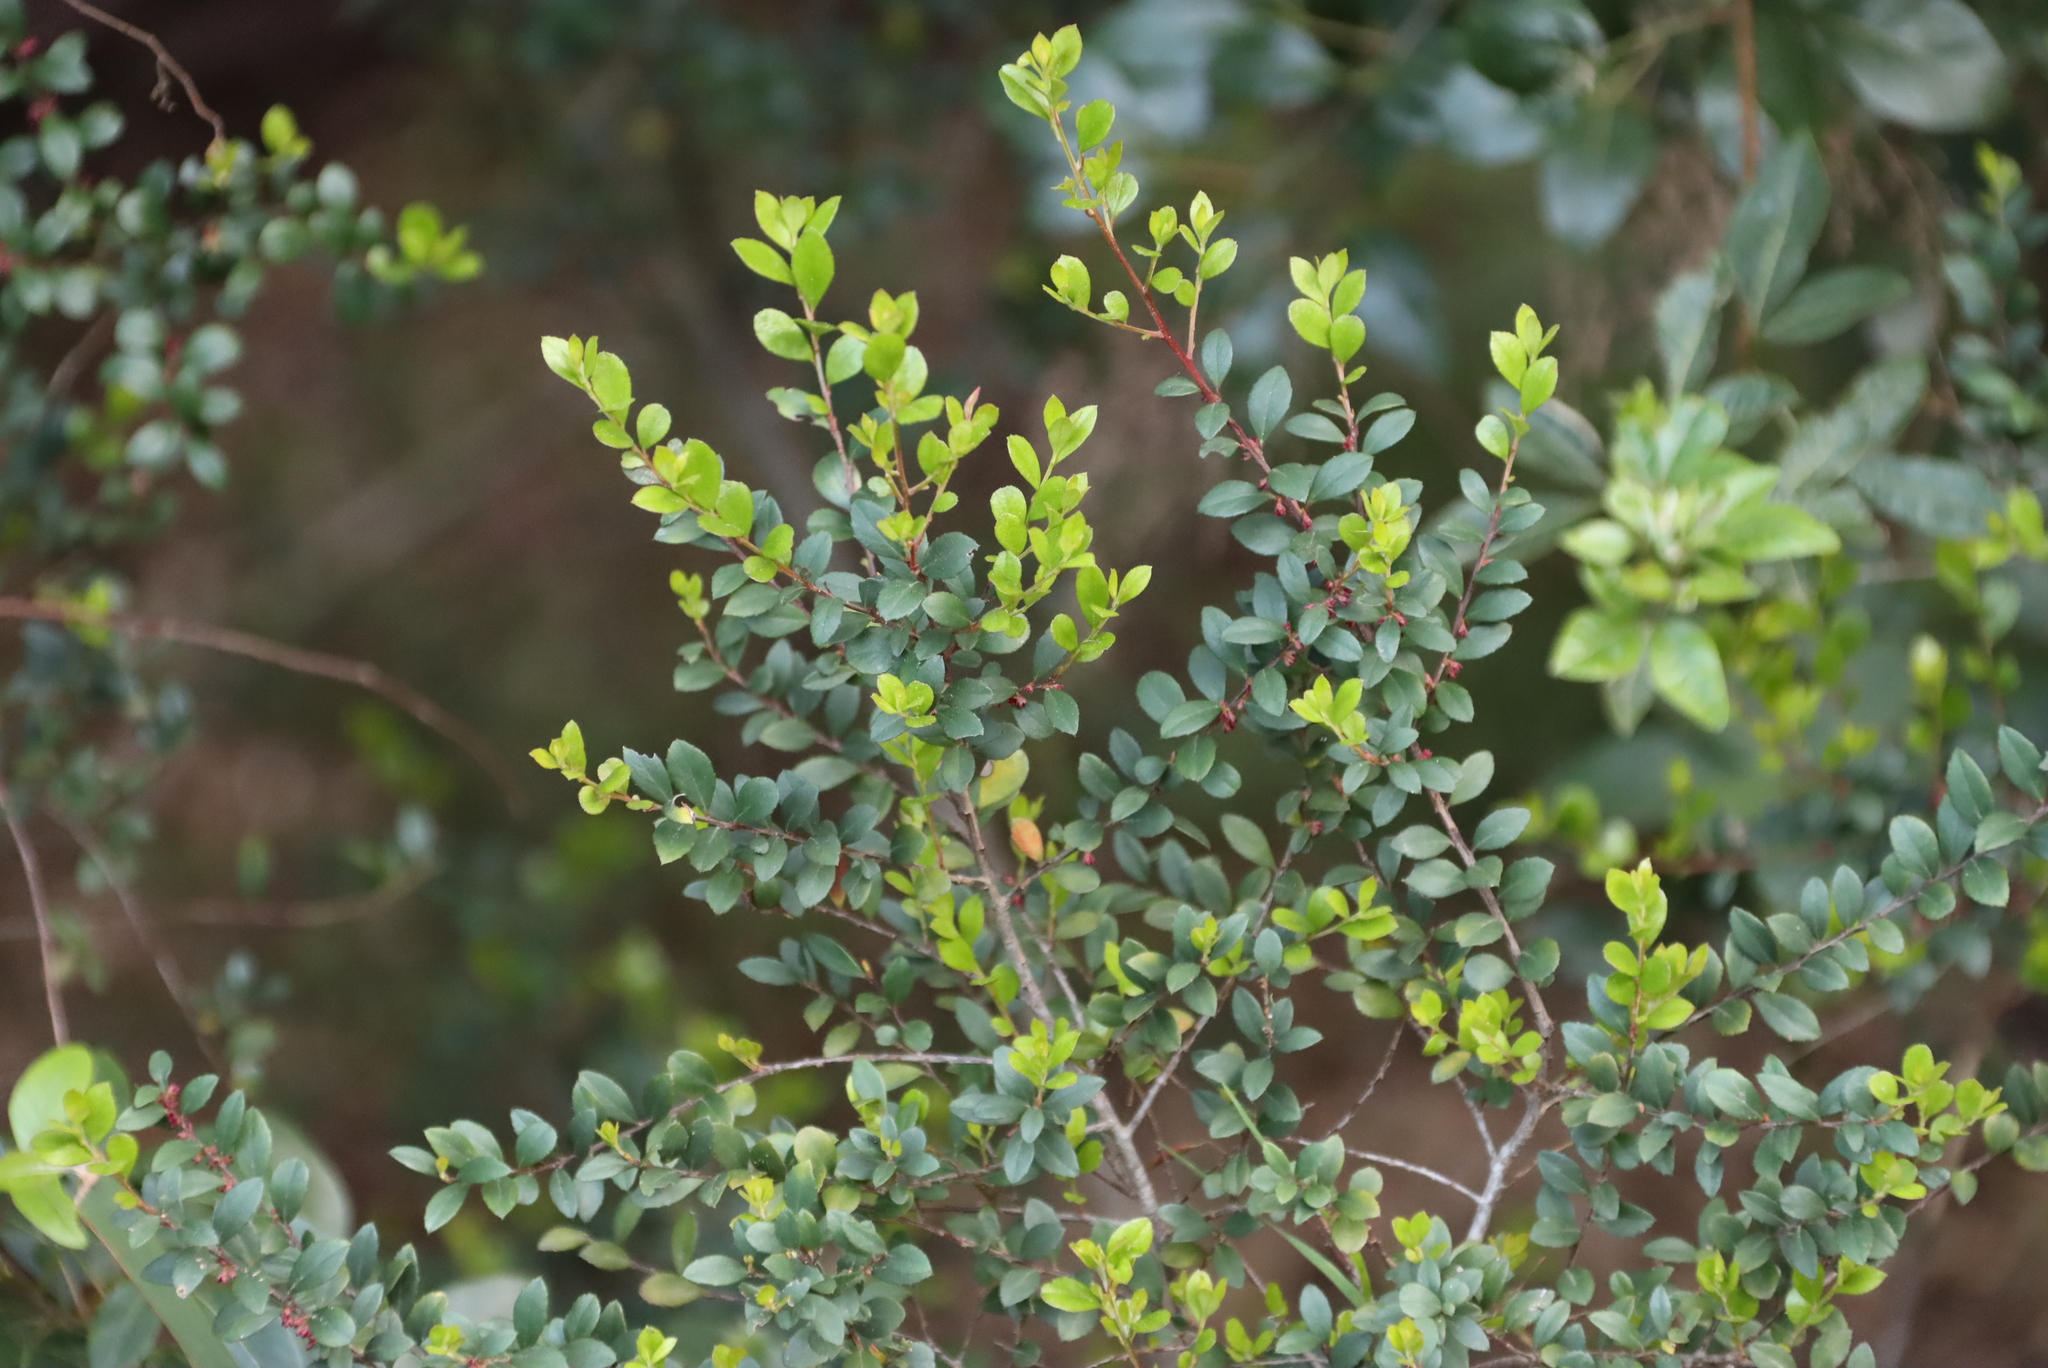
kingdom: Plantae
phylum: Tracheophyta
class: Magnoliopsida
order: Ericales
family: Primulaceae
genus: Myrsine
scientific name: Myrsine africana
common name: African-boxwood
